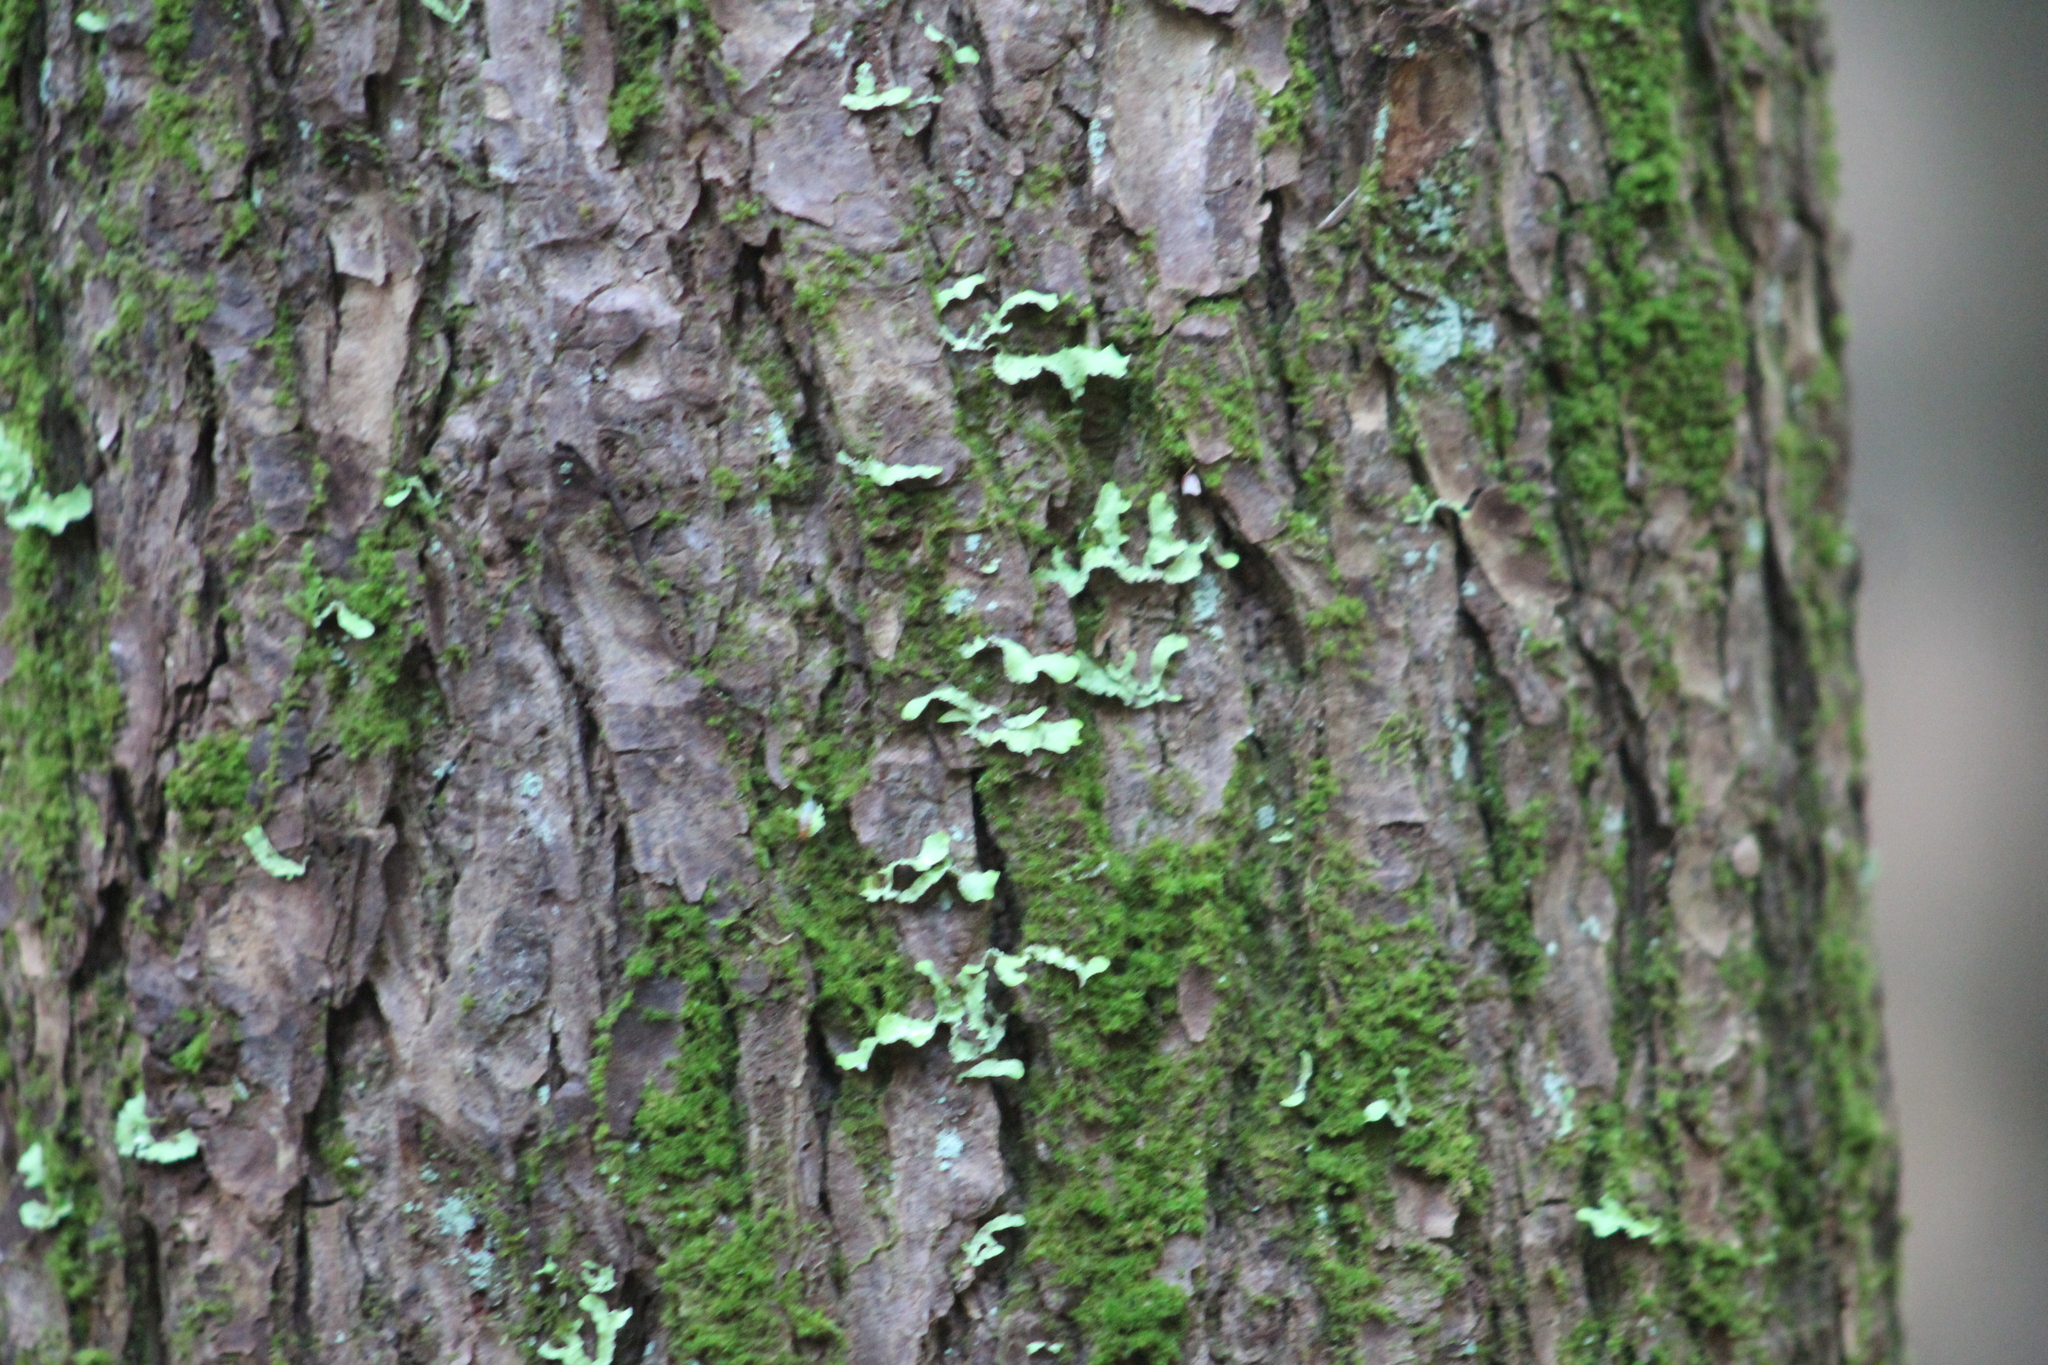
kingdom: Fungi
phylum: Ascomycota
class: Lecanoromycetes
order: Lecanorales
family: Parmeliaceae
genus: Usnocetraria
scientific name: Usnocetraria oakesiana
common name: Yellow ribbon lichen
